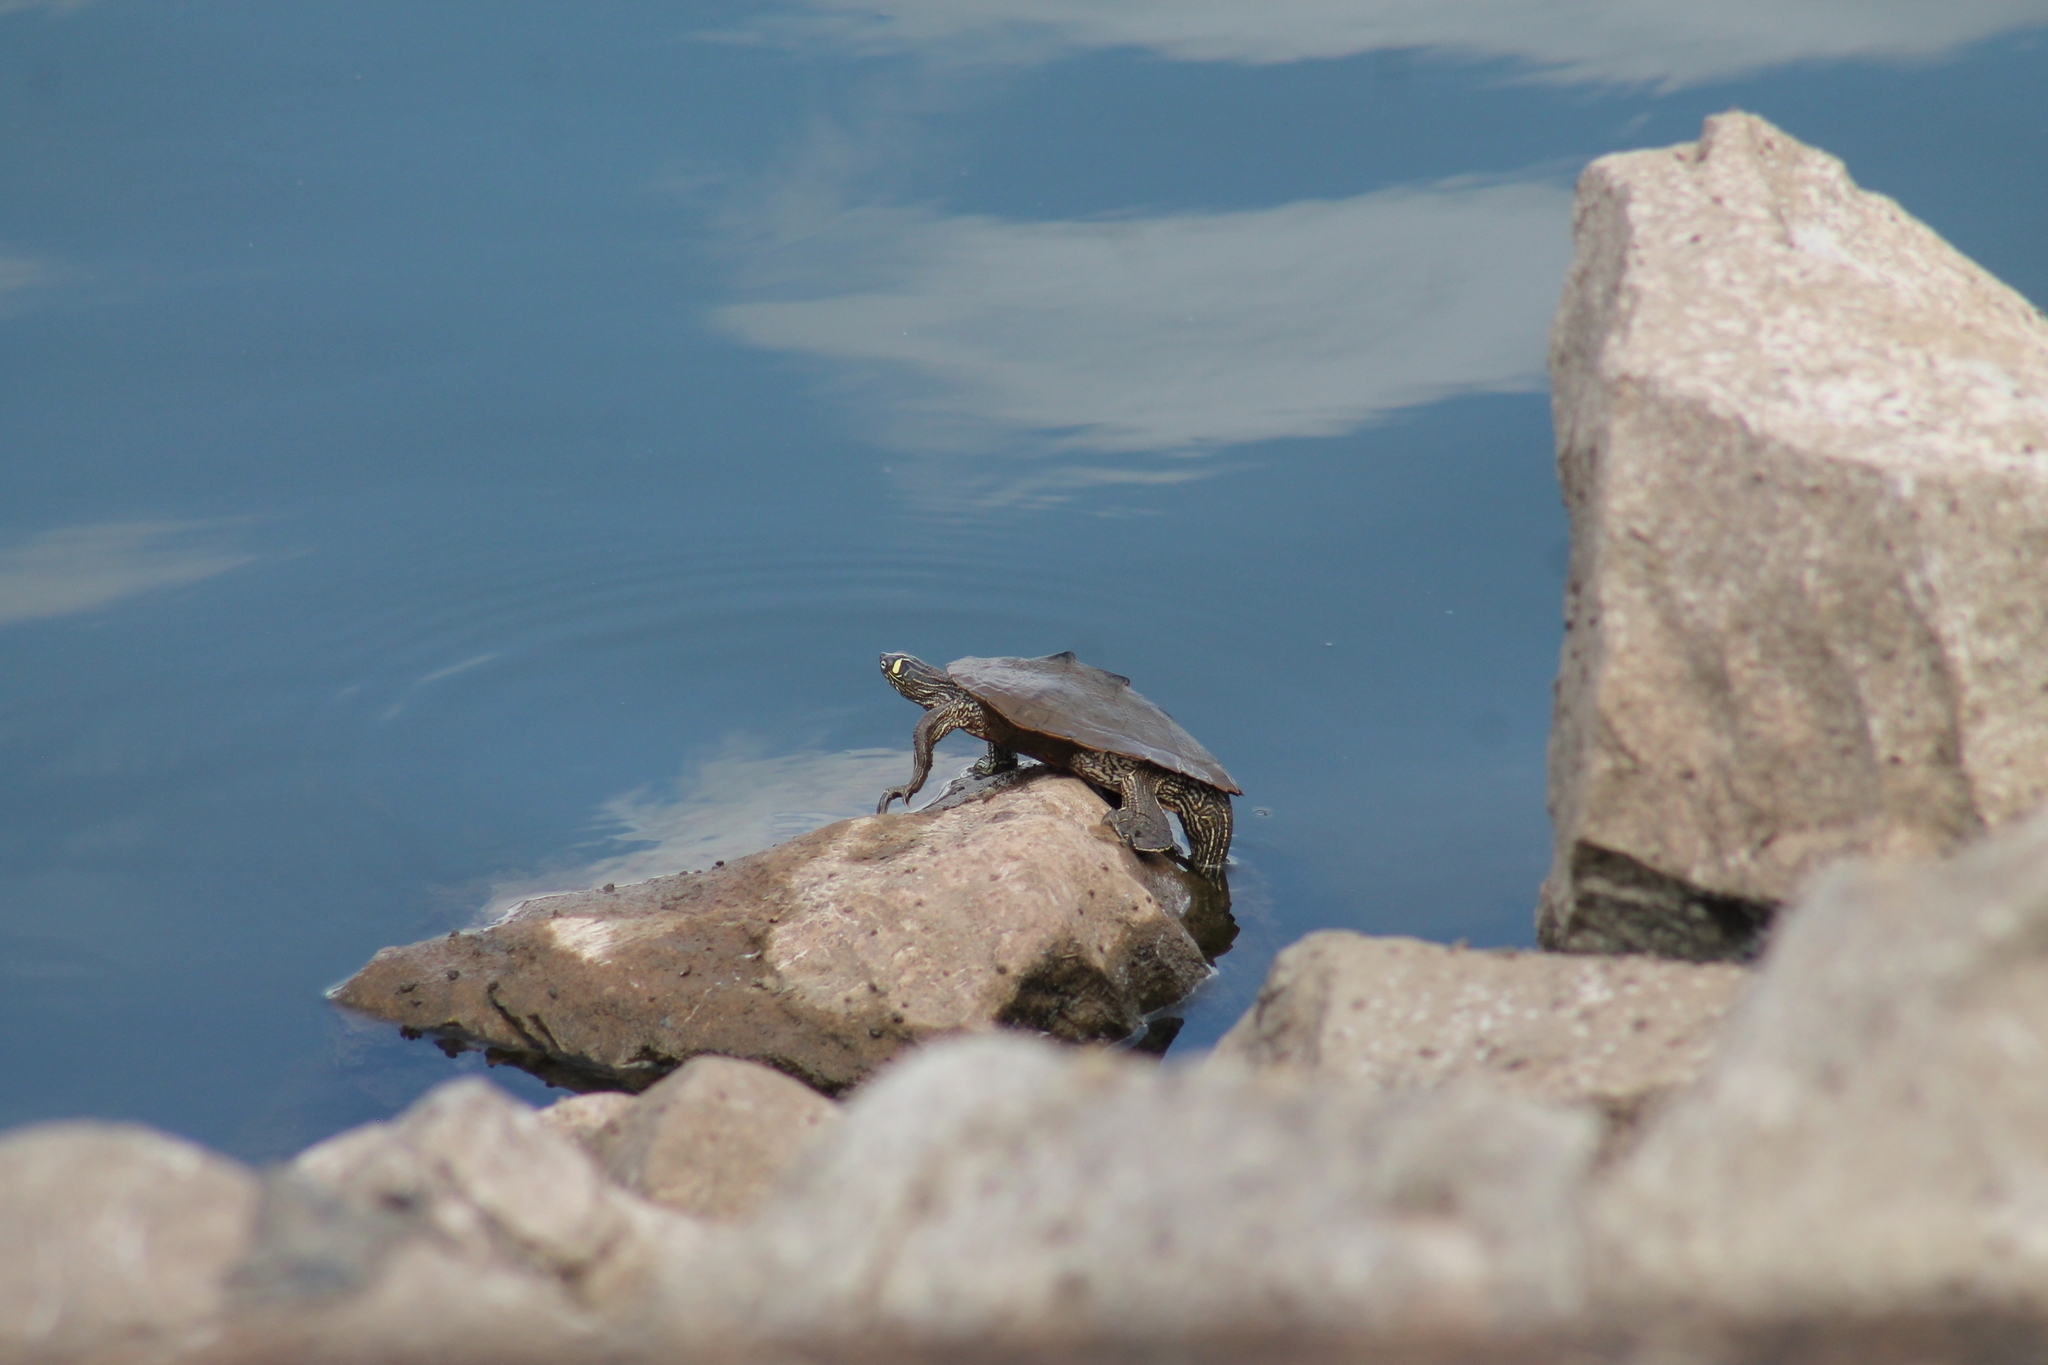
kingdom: Animalia
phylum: Chordata
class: Testudines
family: Emydidae
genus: Graptemys
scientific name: Graptemys ouachitensis
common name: Ouachita map turtle
